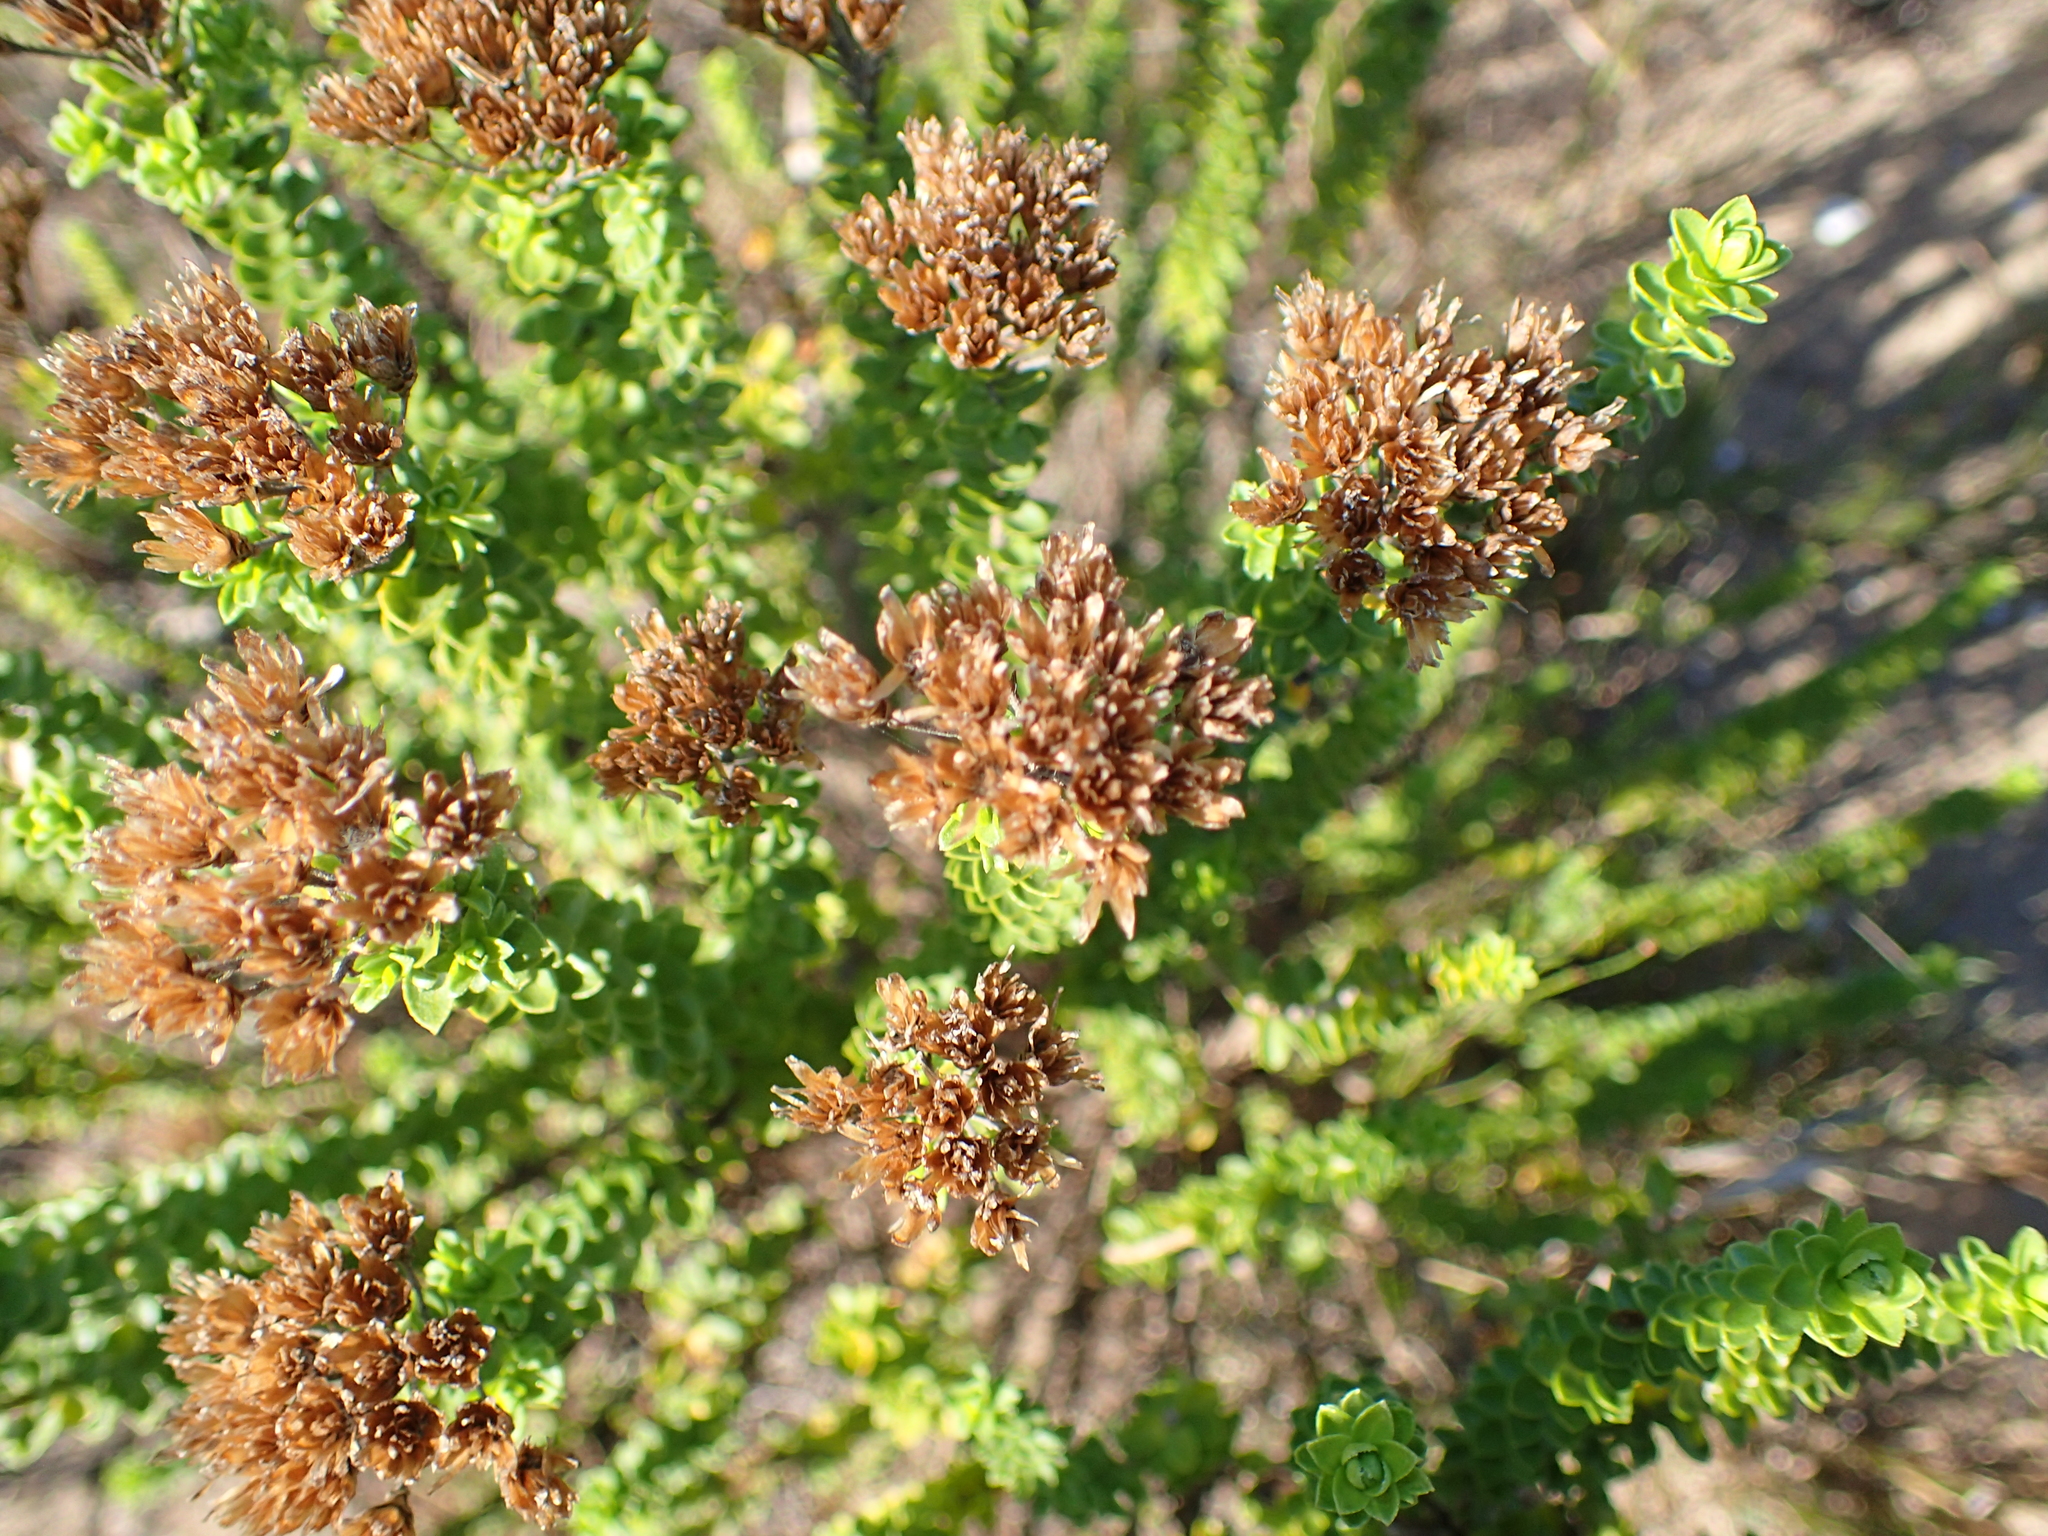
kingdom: Plantae
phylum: Tracheophyta
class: Magnoliopsida
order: Asterales
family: Asteraceae
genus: Athanasia
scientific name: Athanasia quinquedentata
